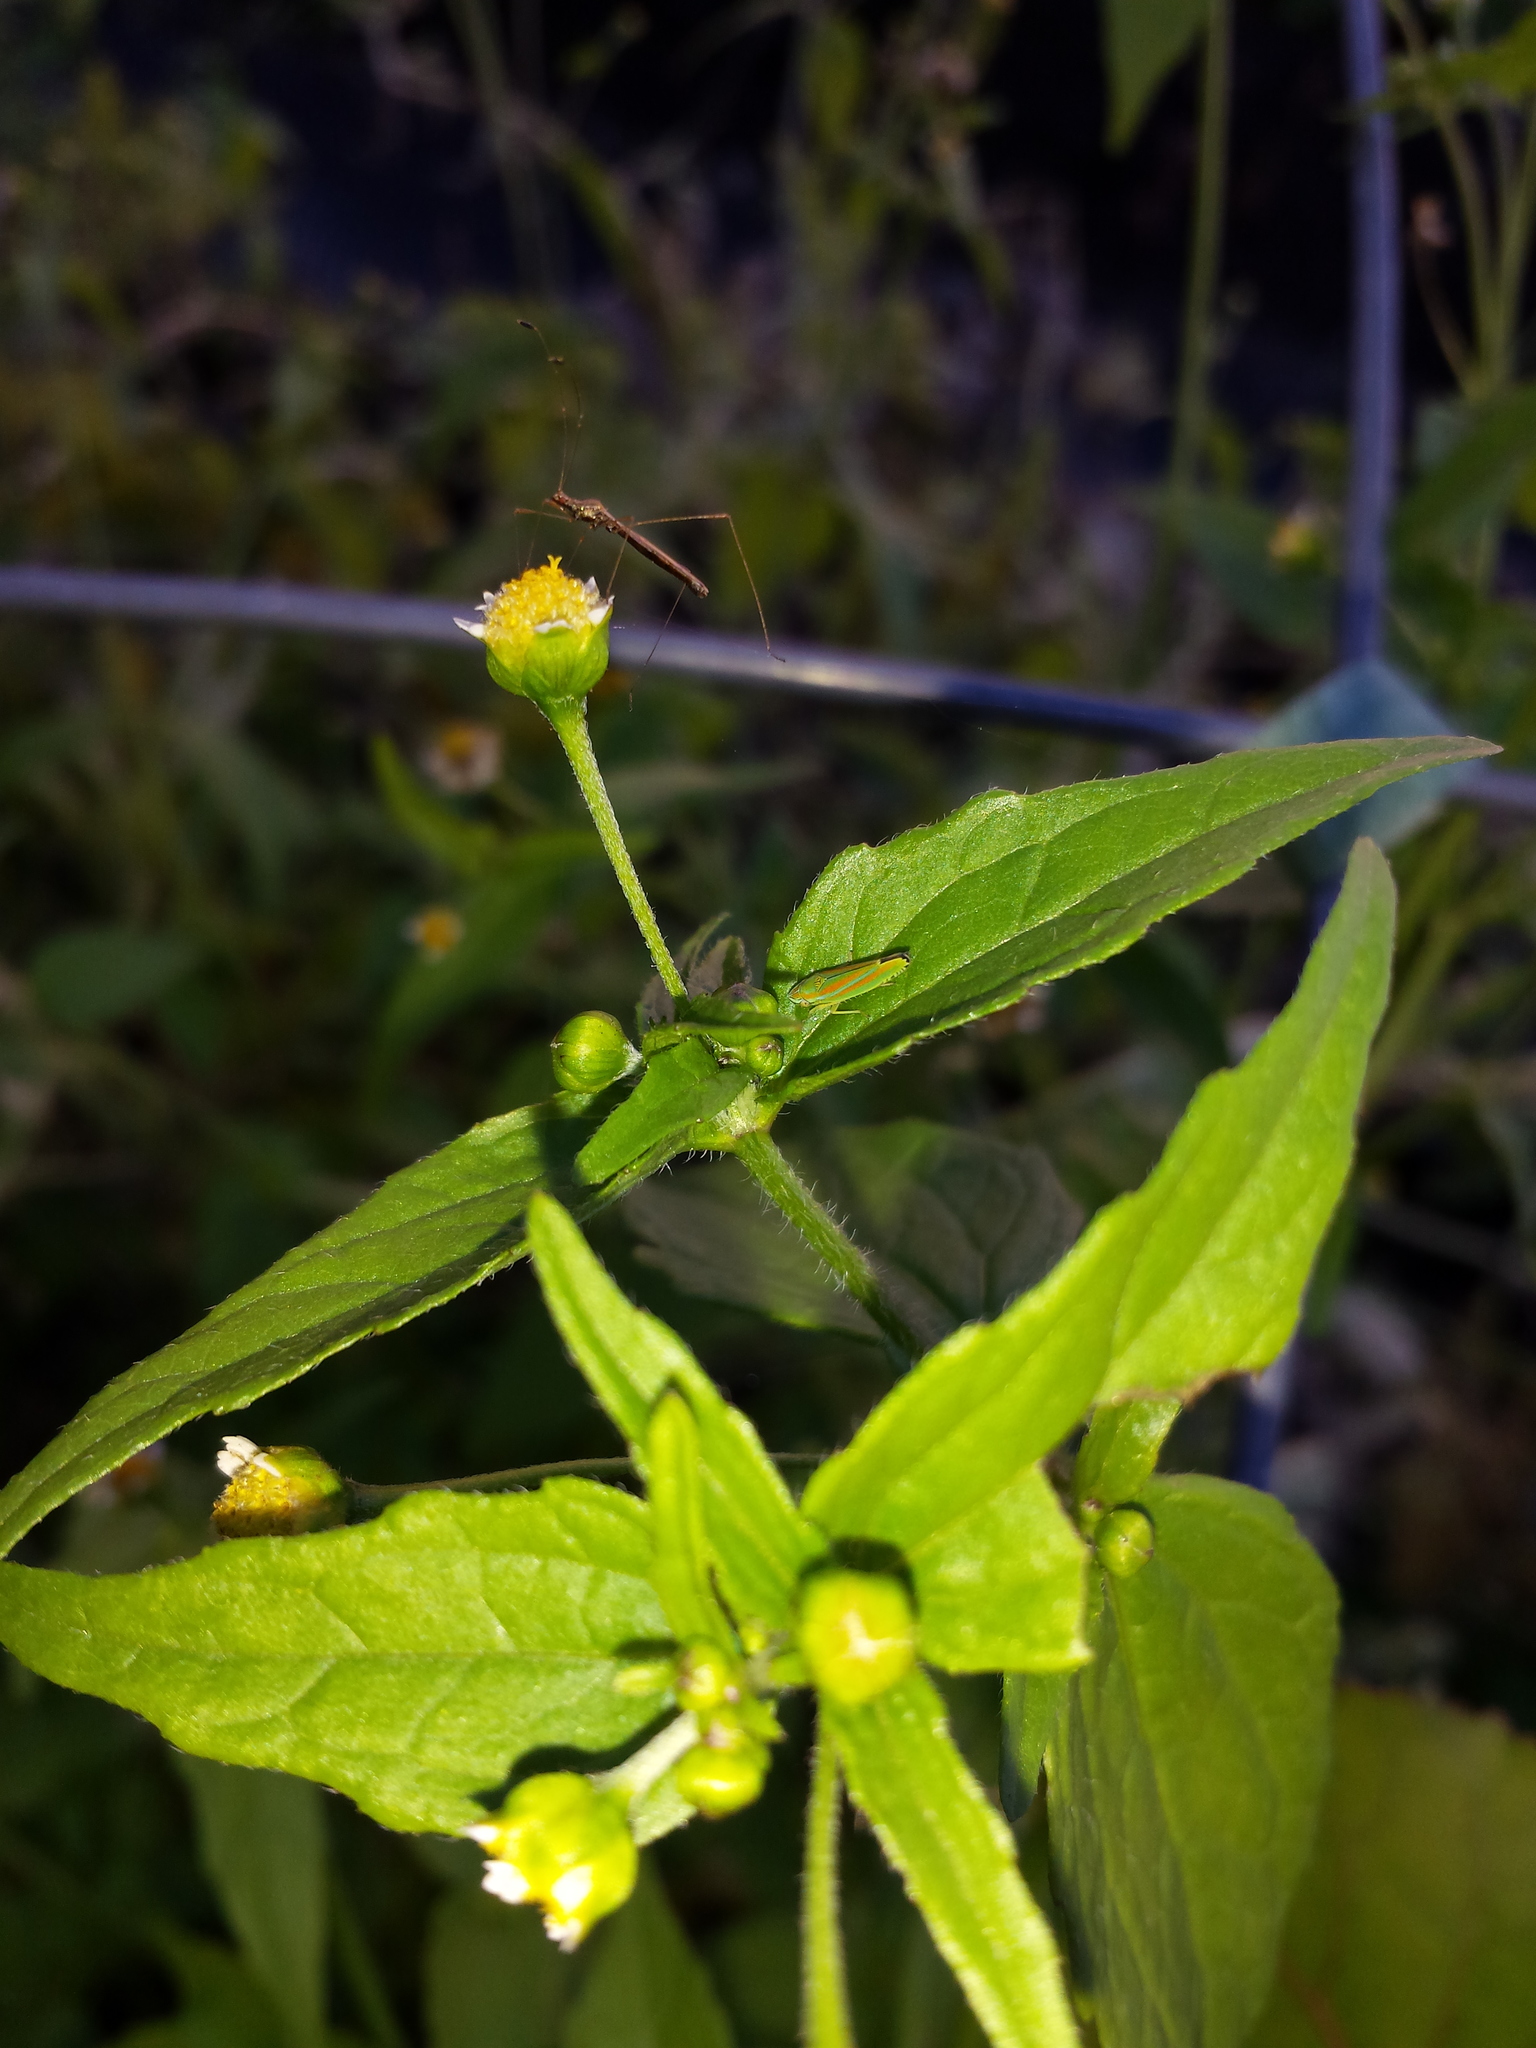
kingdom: Animalia
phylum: Arthropoda
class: Insecta
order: Hemiptera
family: Cicadellidae
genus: Graphocephala
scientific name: Graphocephala versuta
